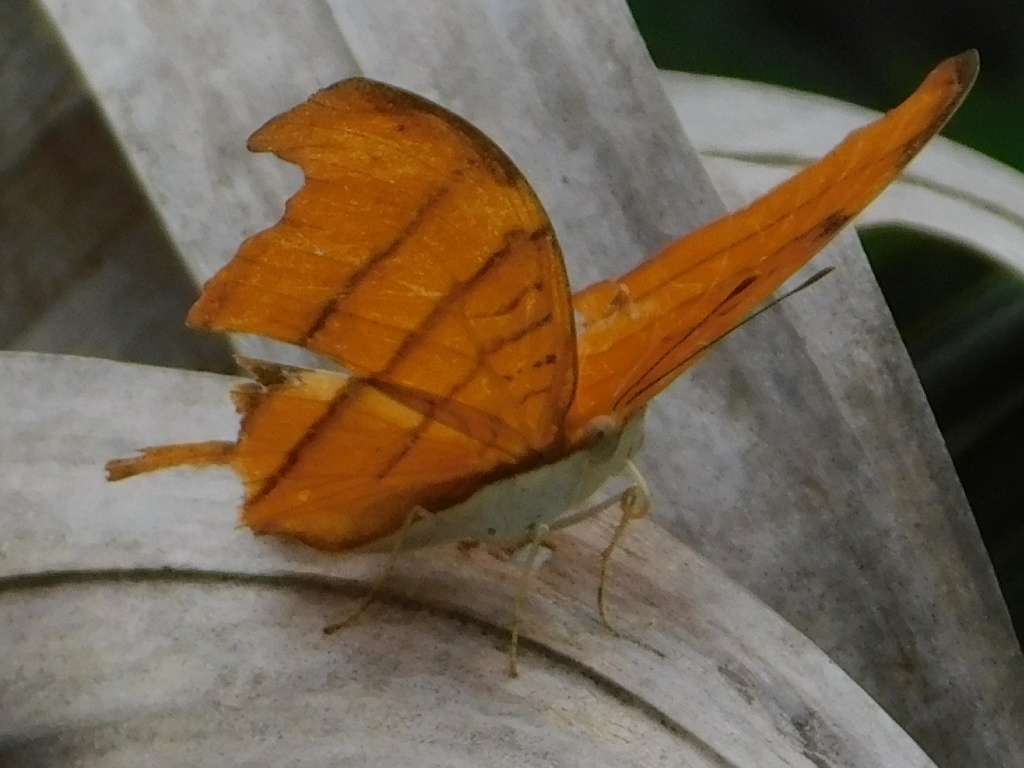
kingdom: Animalia
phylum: Arthropoda
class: Insecta
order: Lepidoptera
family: Nymphalidae
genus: Marpesia
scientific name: Marpesia petreus
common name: Red dagger wing
